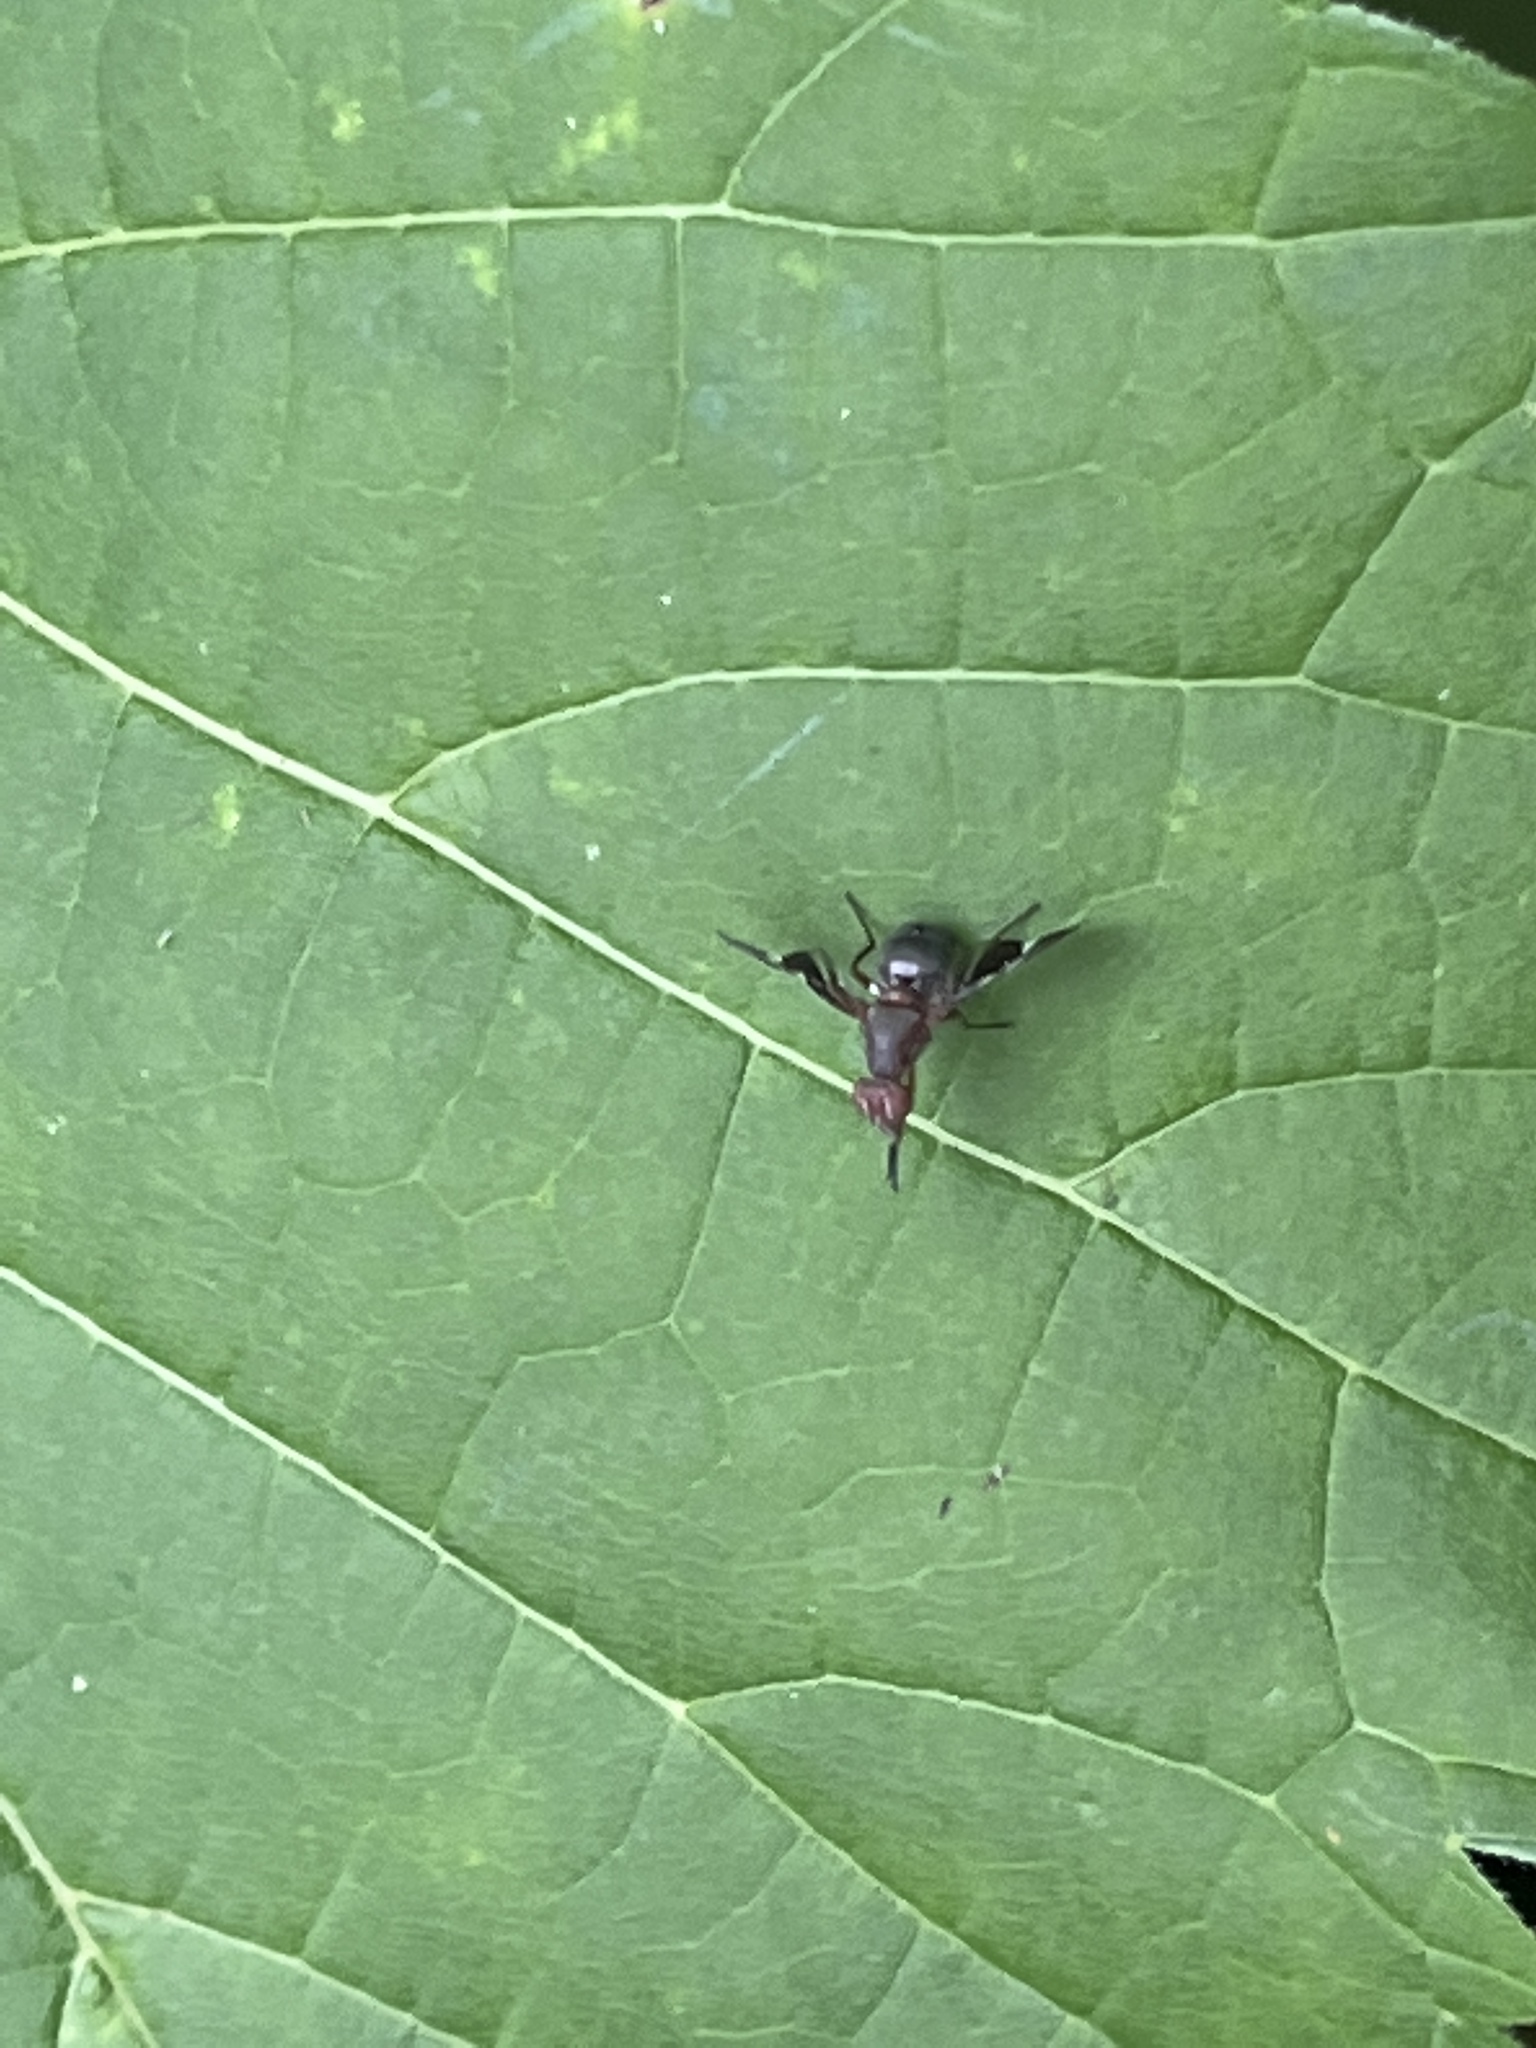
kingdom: Animalia
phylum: Arthropoda
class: Insecta
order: Diptera
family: Ulidiidae
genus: Delphinia
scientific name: Delphinia picta
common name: Common picture-winged fly
